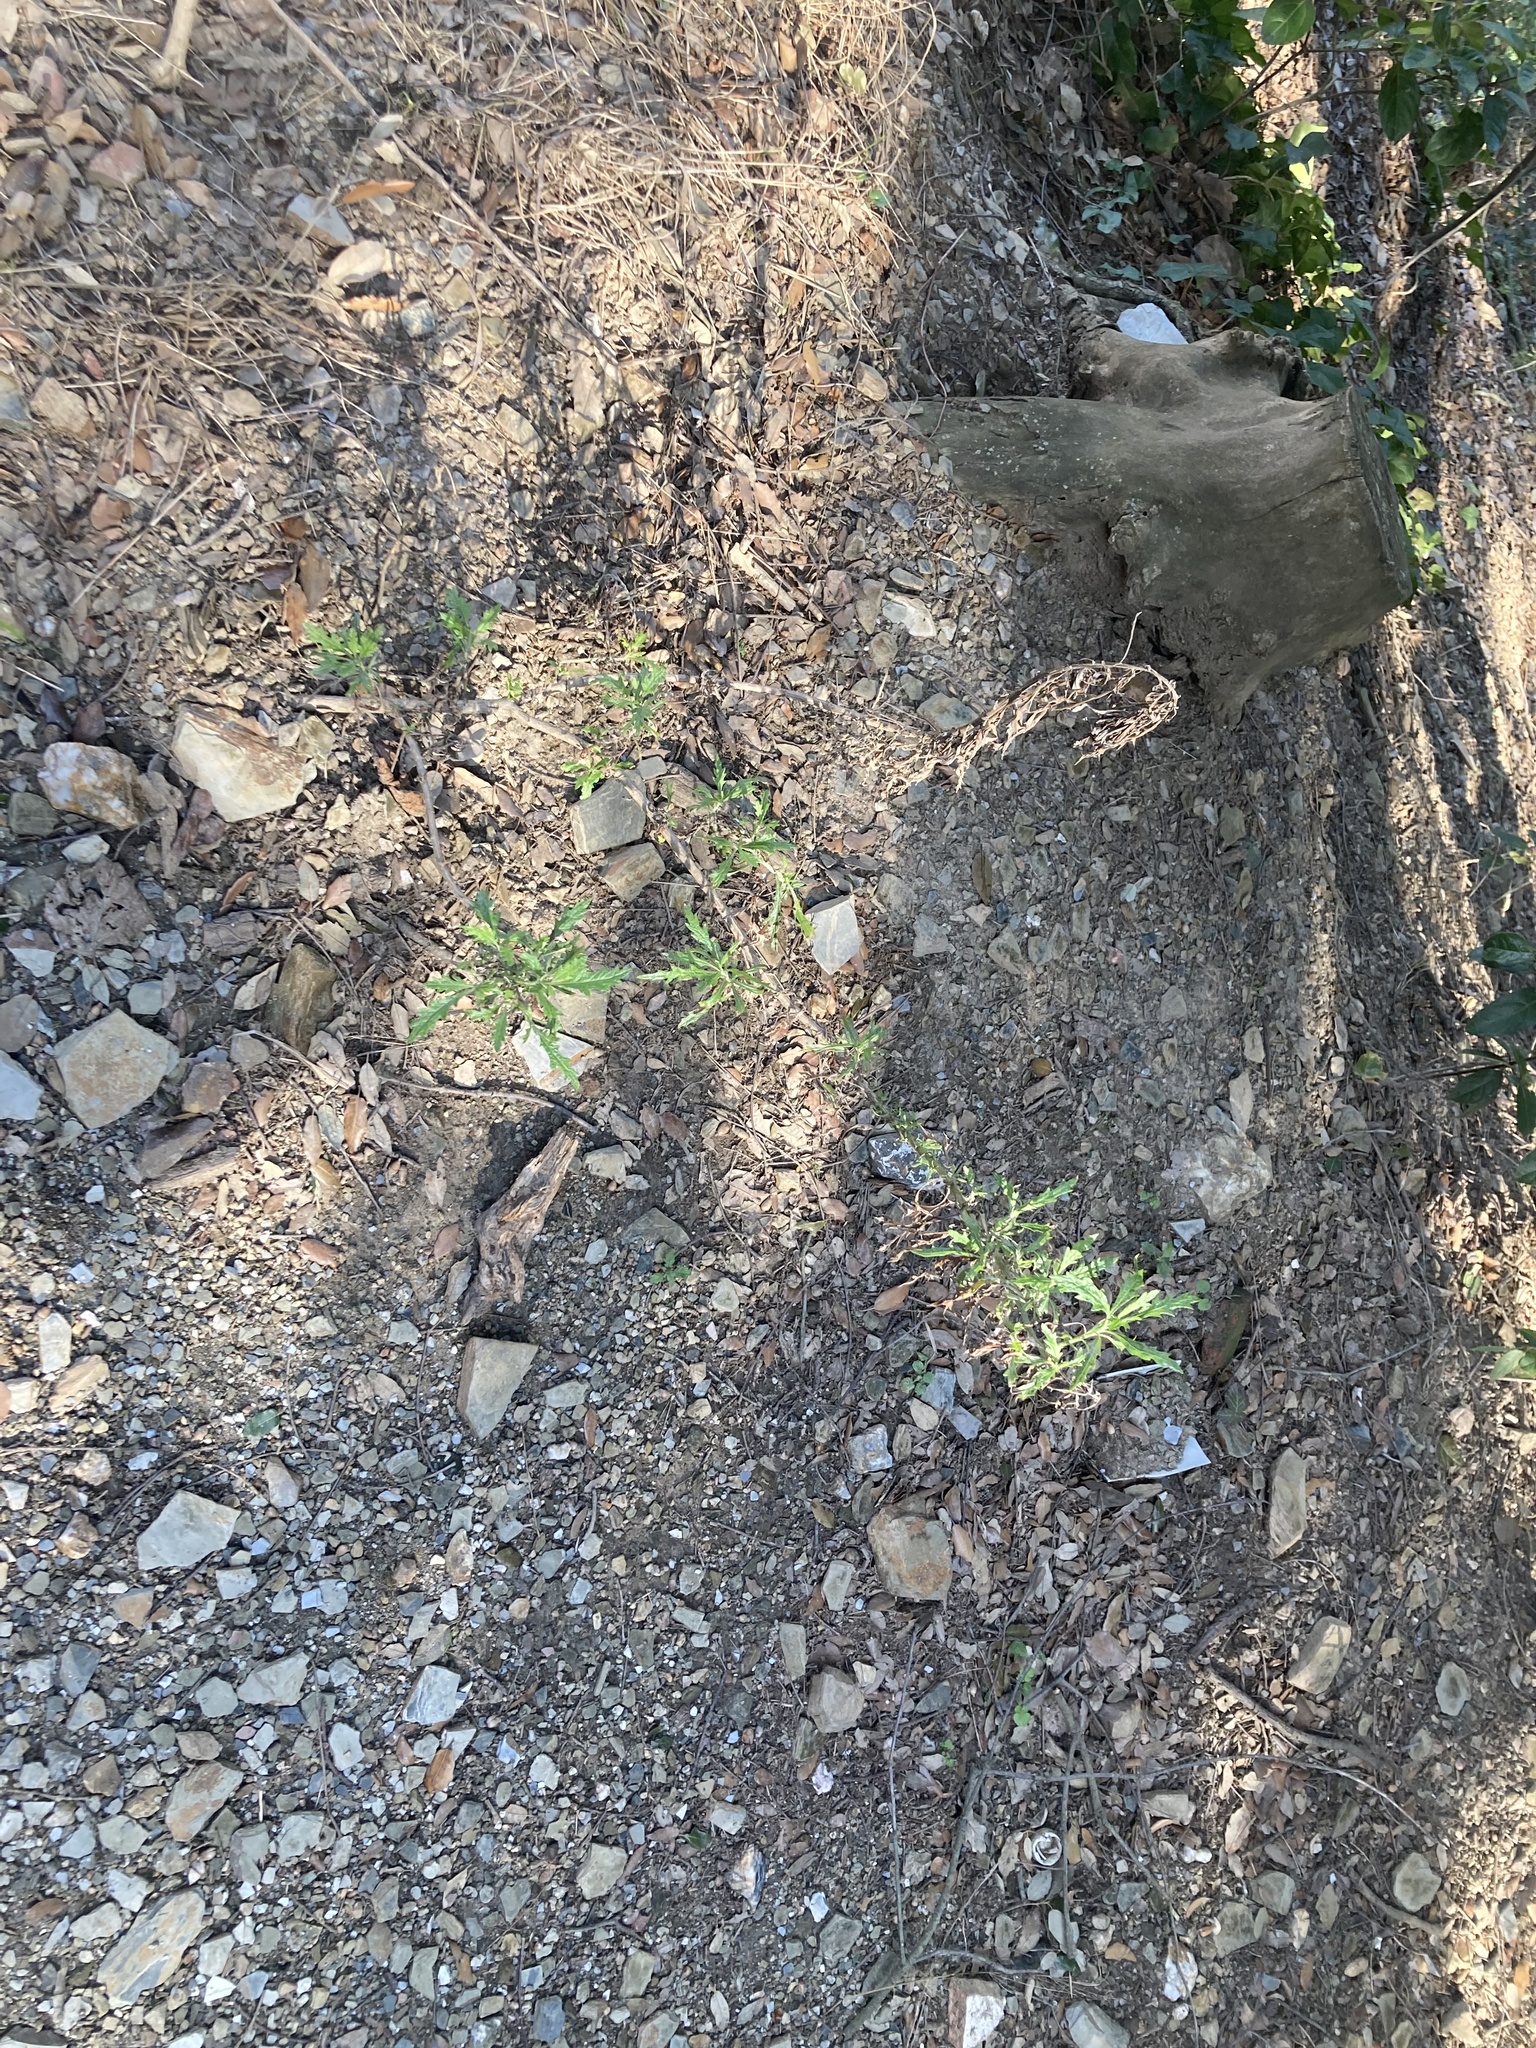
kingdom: Plantae
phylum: Tracheophyta
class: Magnoliopsida
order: Asterales
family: Asteraceae
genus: Senecio
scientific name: Senecio pterophorus
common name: Shoddy ragwort
